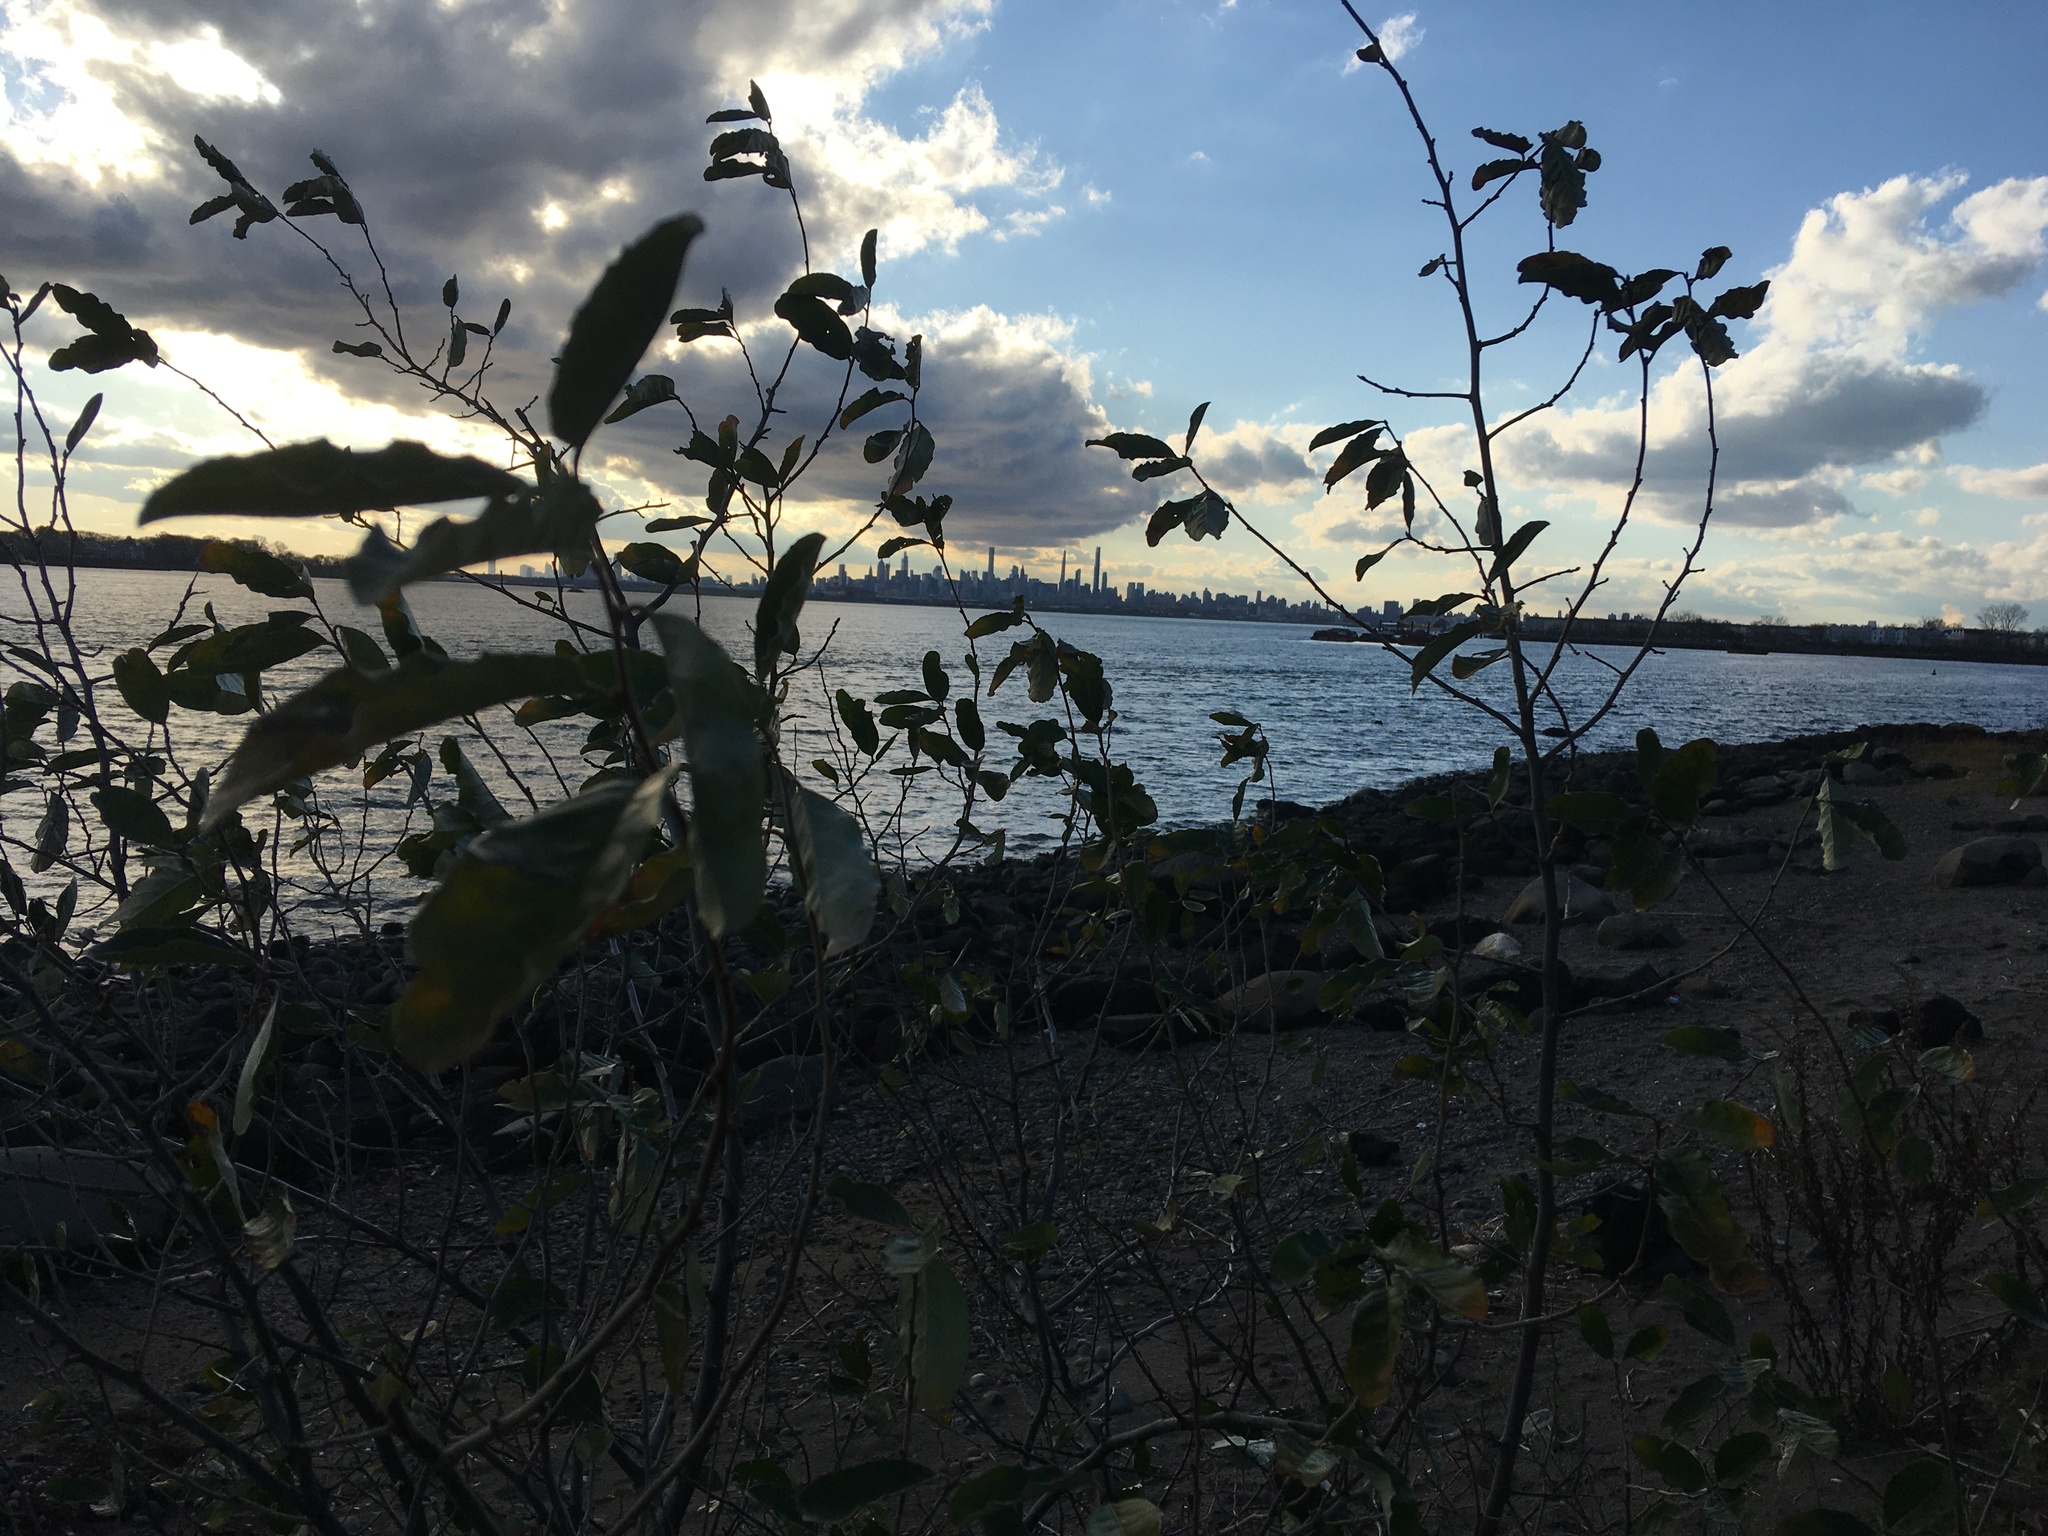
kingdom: Plantae
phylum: Tracheophyta
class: Magnoliopsida
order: Rosales
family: Elaeagnaceae
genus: Elaeagnus
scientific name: Elaeagnus umbellata
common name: Autumn olive
